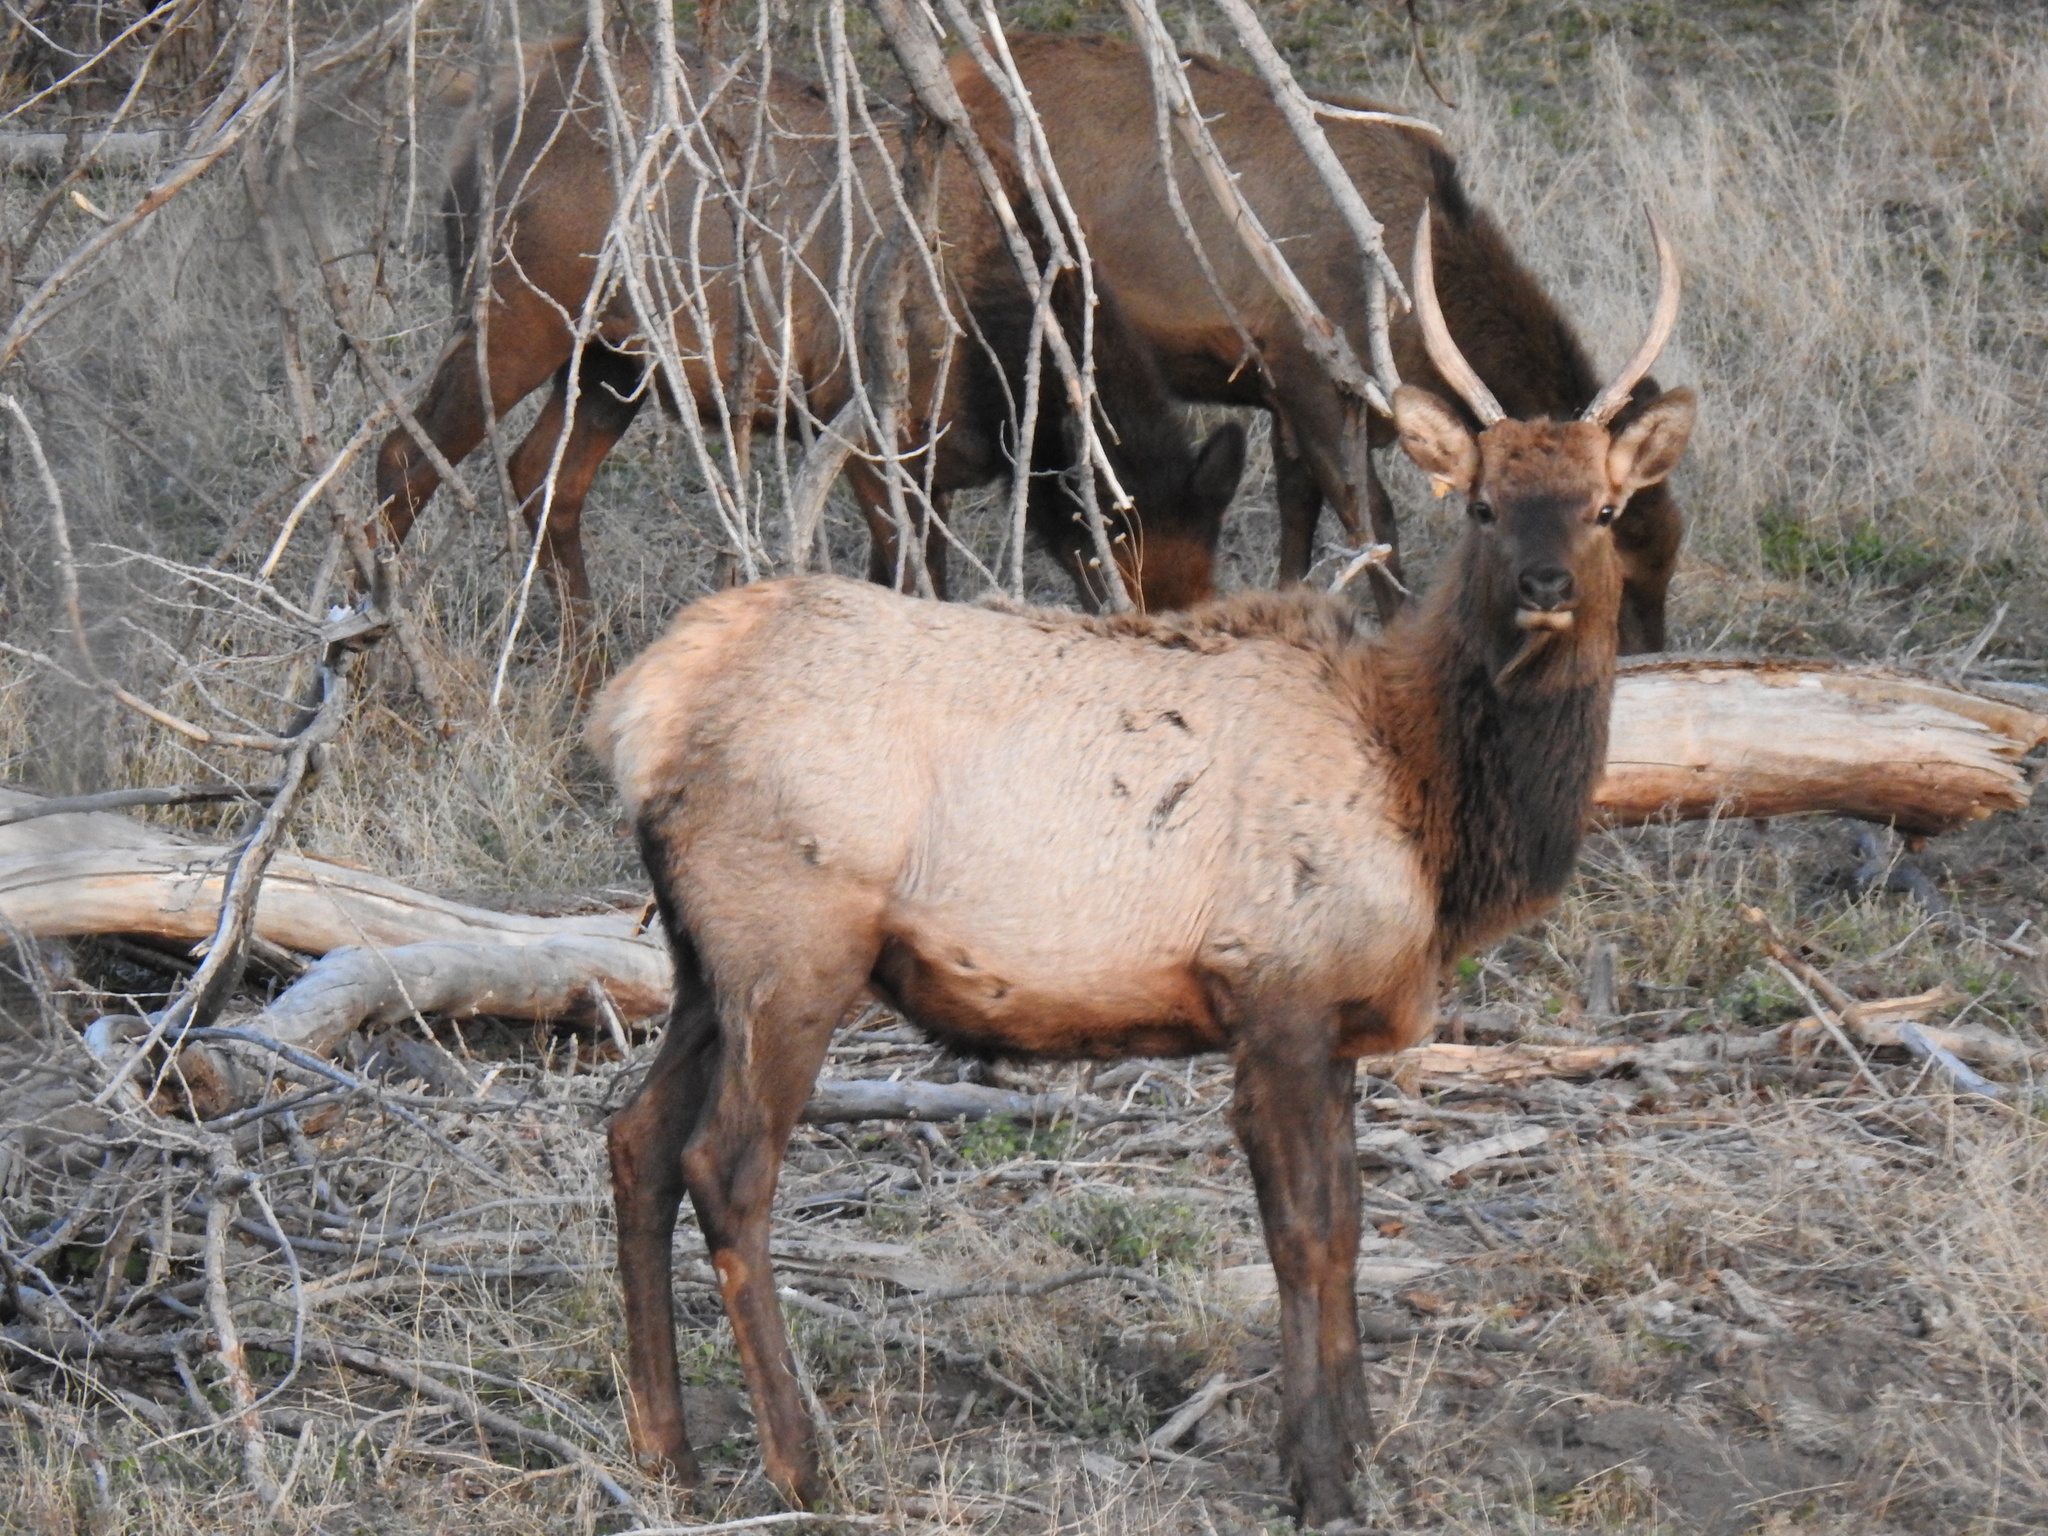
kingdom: Animalia
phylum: Chordata
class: Mammalia
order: Artiodactyla
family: Cervidae
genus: Cervus
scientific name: Cervus elaphus
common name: Red deer
